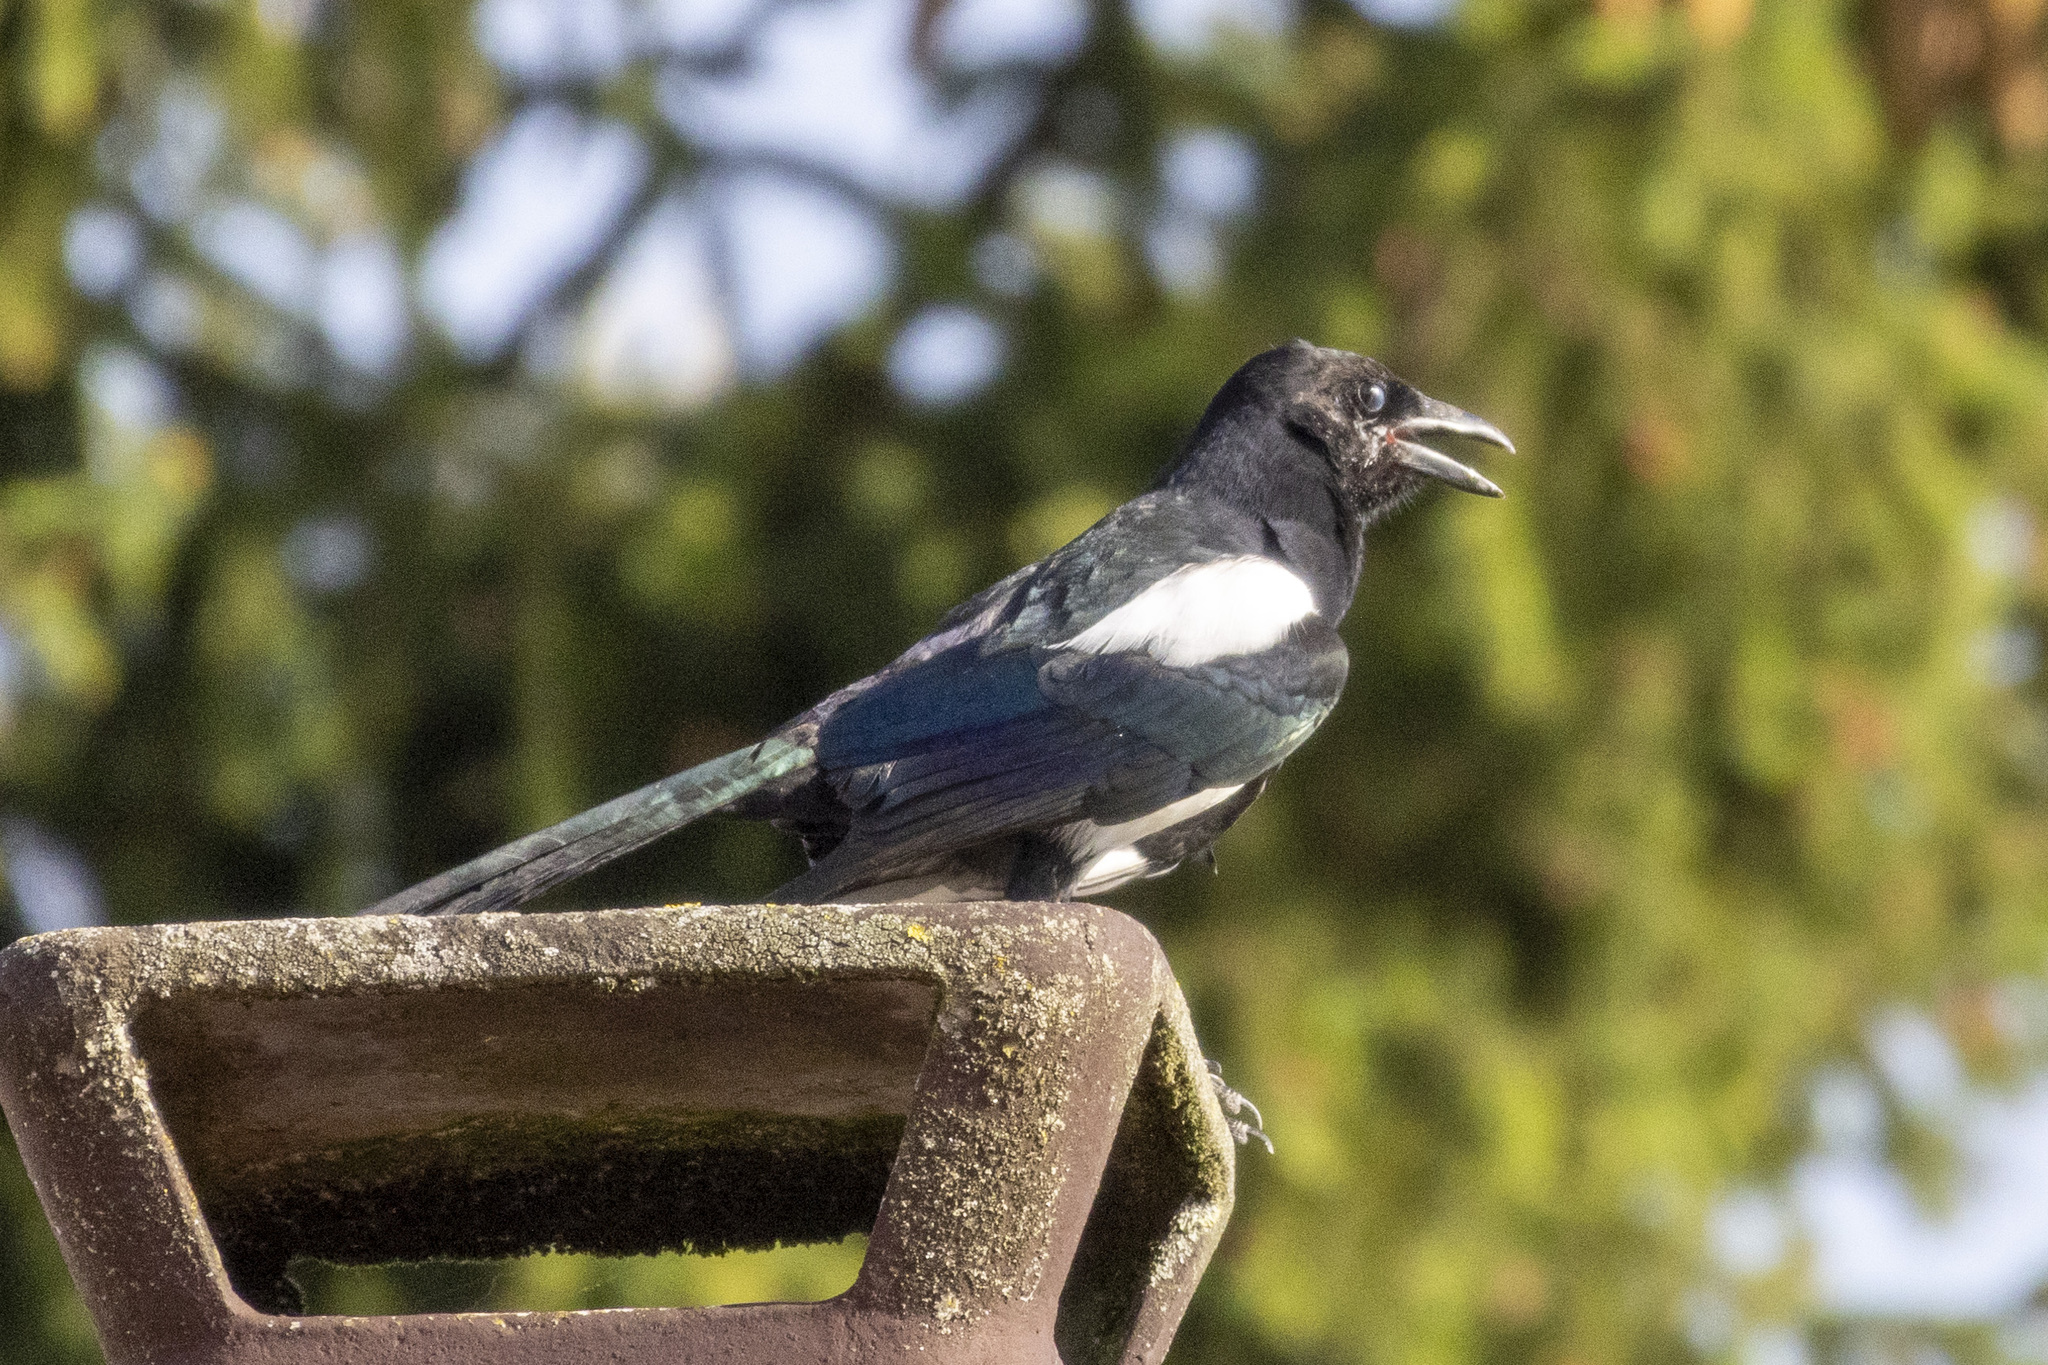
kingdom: Animalia
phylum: Chordata
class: Aves
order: Passeriformes
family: Corvidae
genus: Pica
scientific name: Pica pica
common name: Eurasian magpie
